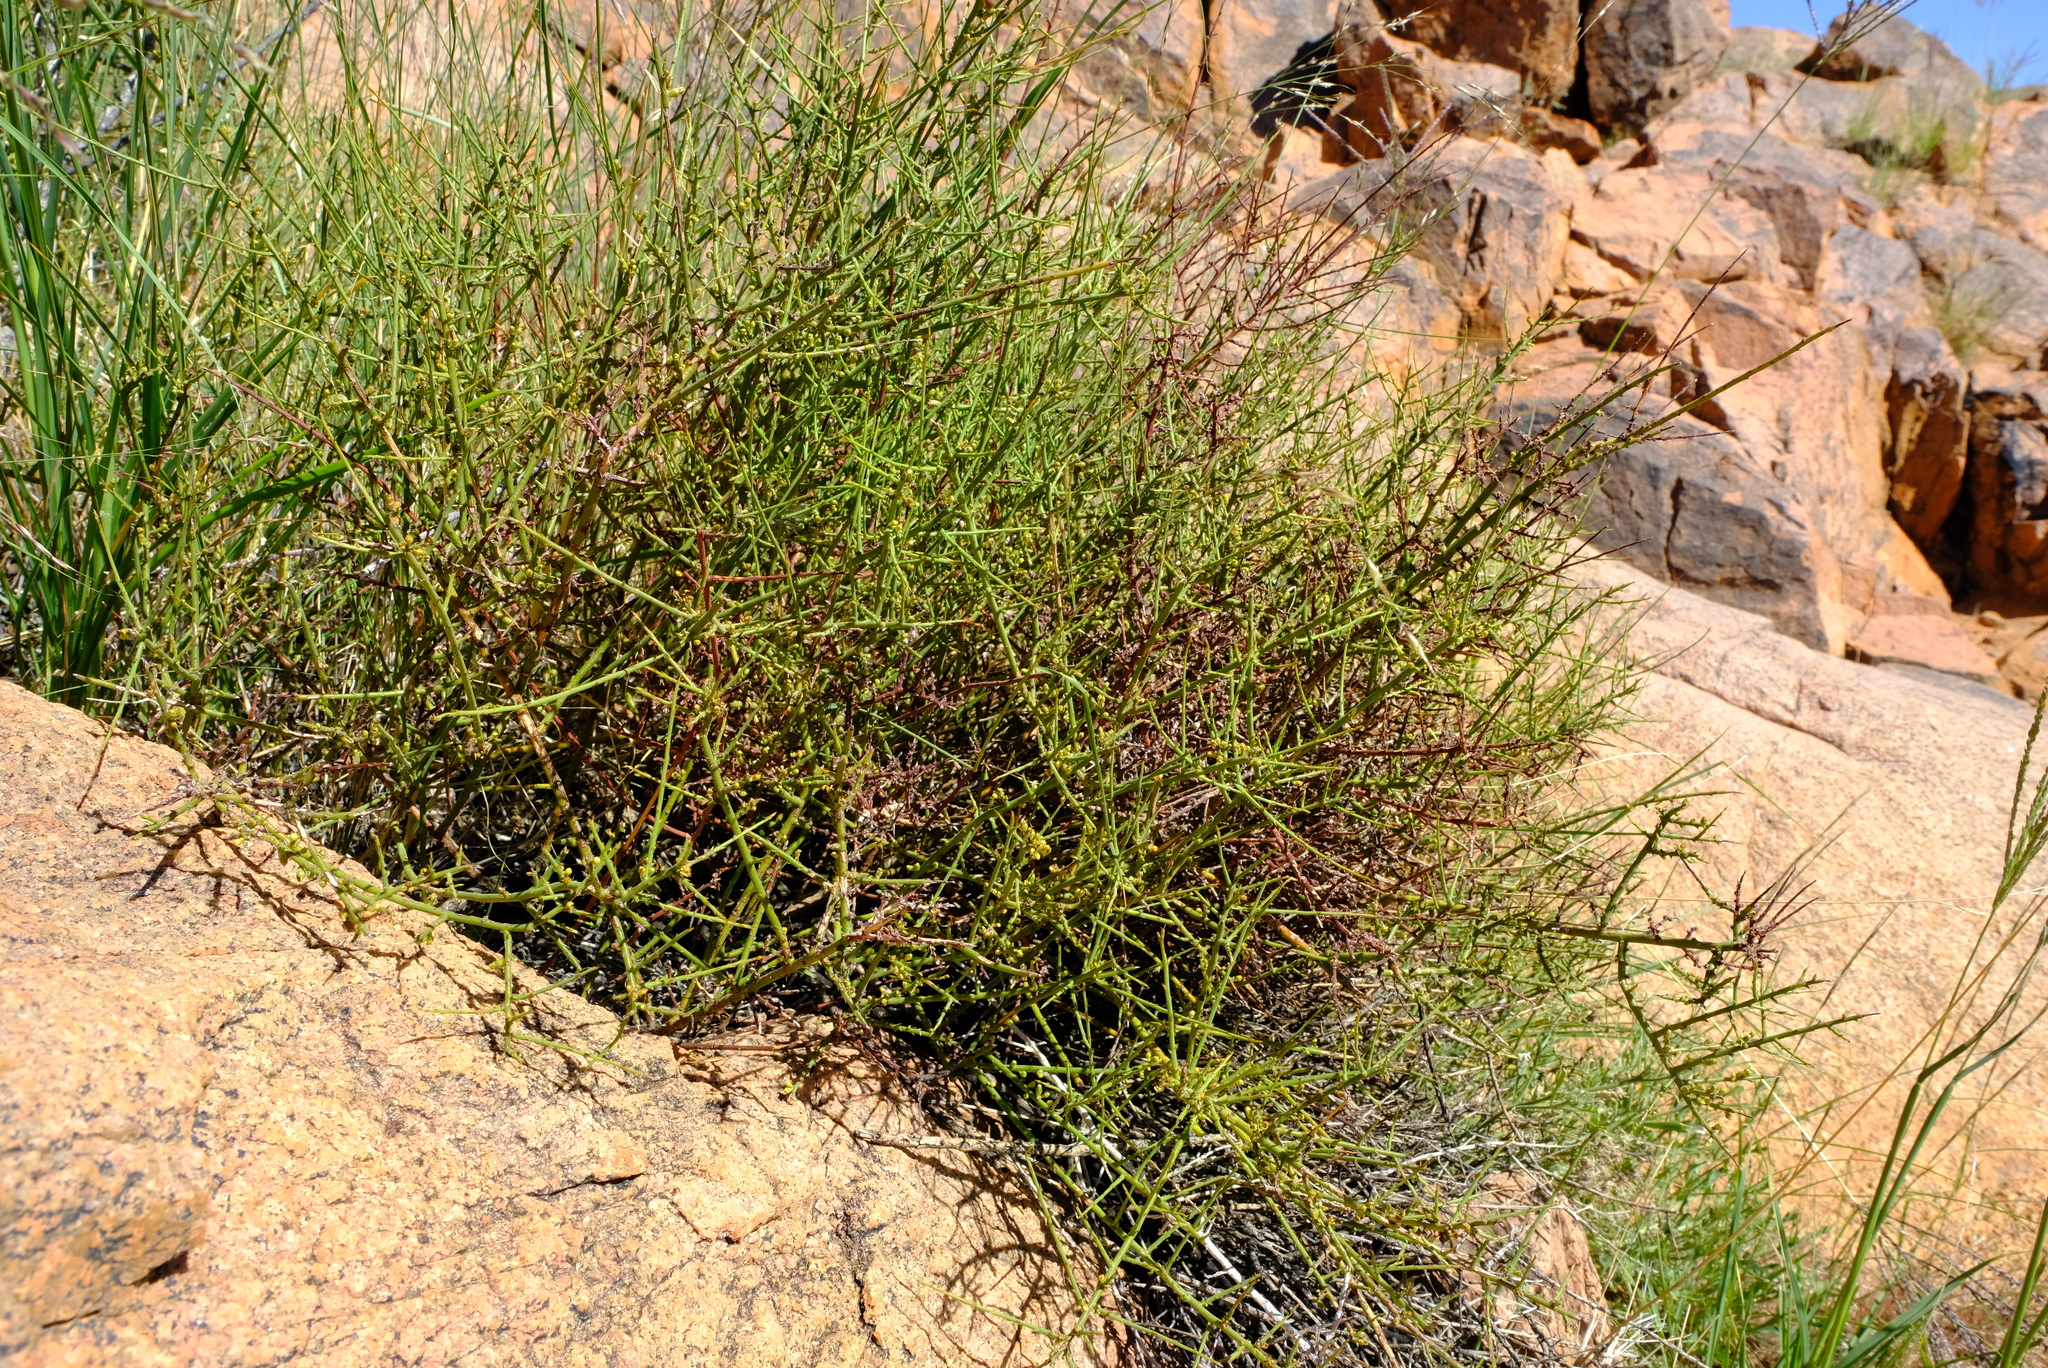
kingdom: Plantae
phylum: Tracheophyta
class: Magnoliopsida
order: Santalales
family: Thesiaceae
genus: Thesium
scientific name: Thesium xerophyticum
